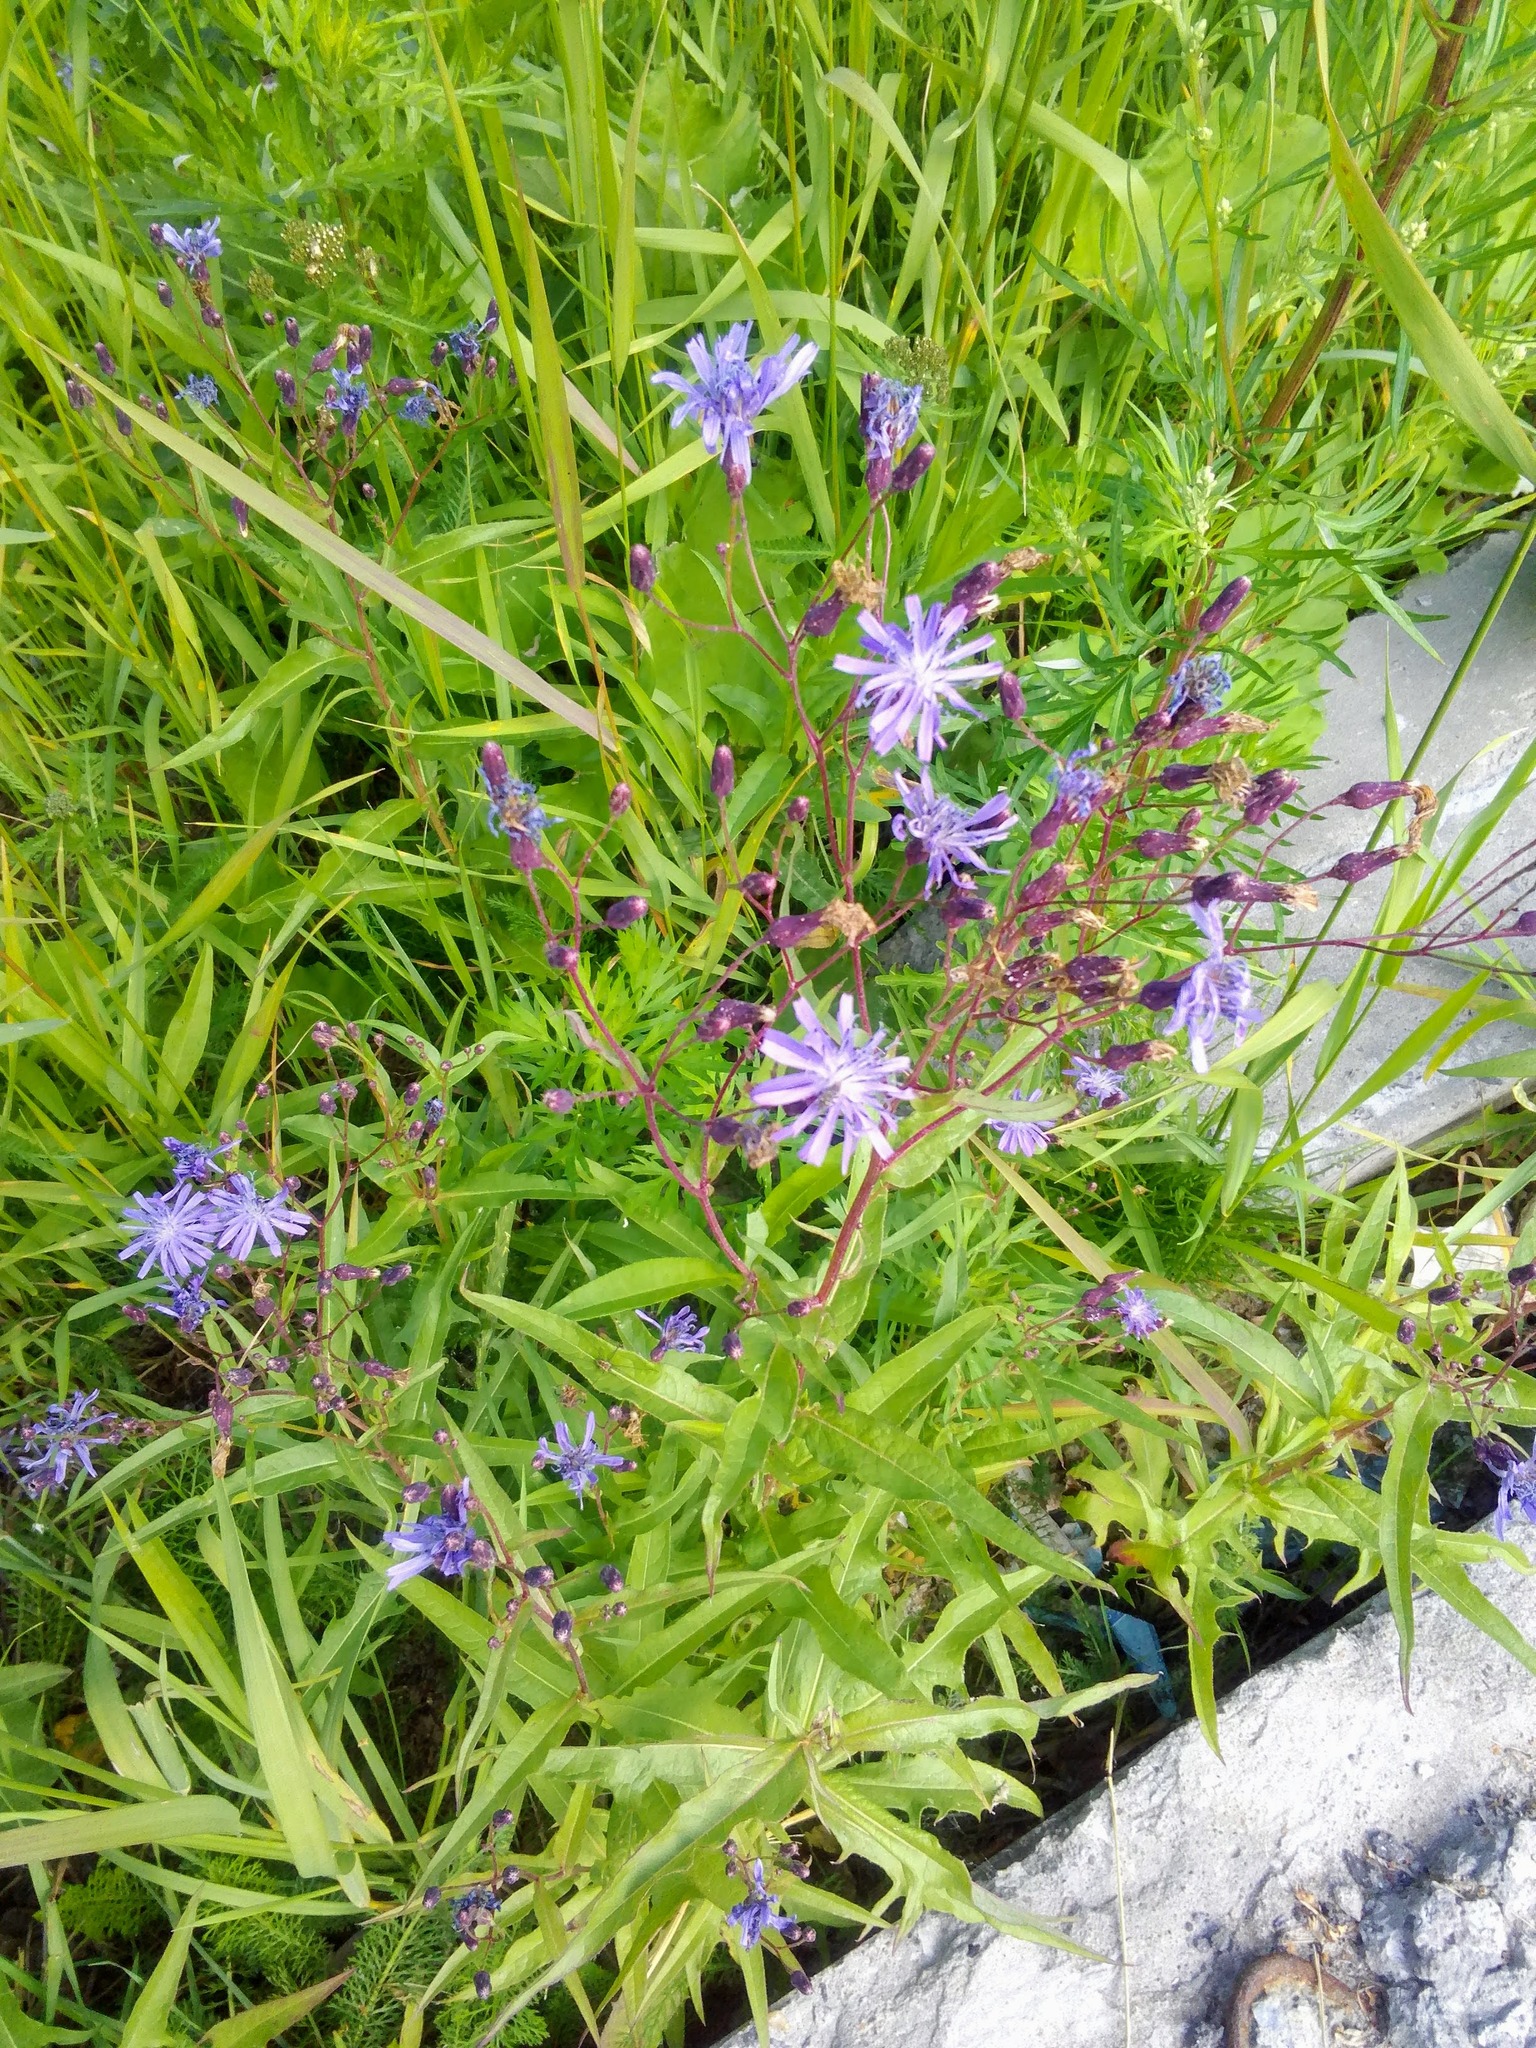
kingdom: Plantae
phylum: Tracheophyta
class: Magnoliopsida
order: Asterales
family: Asteraceae
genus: Lactuca
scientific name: Lactuca sibirica
